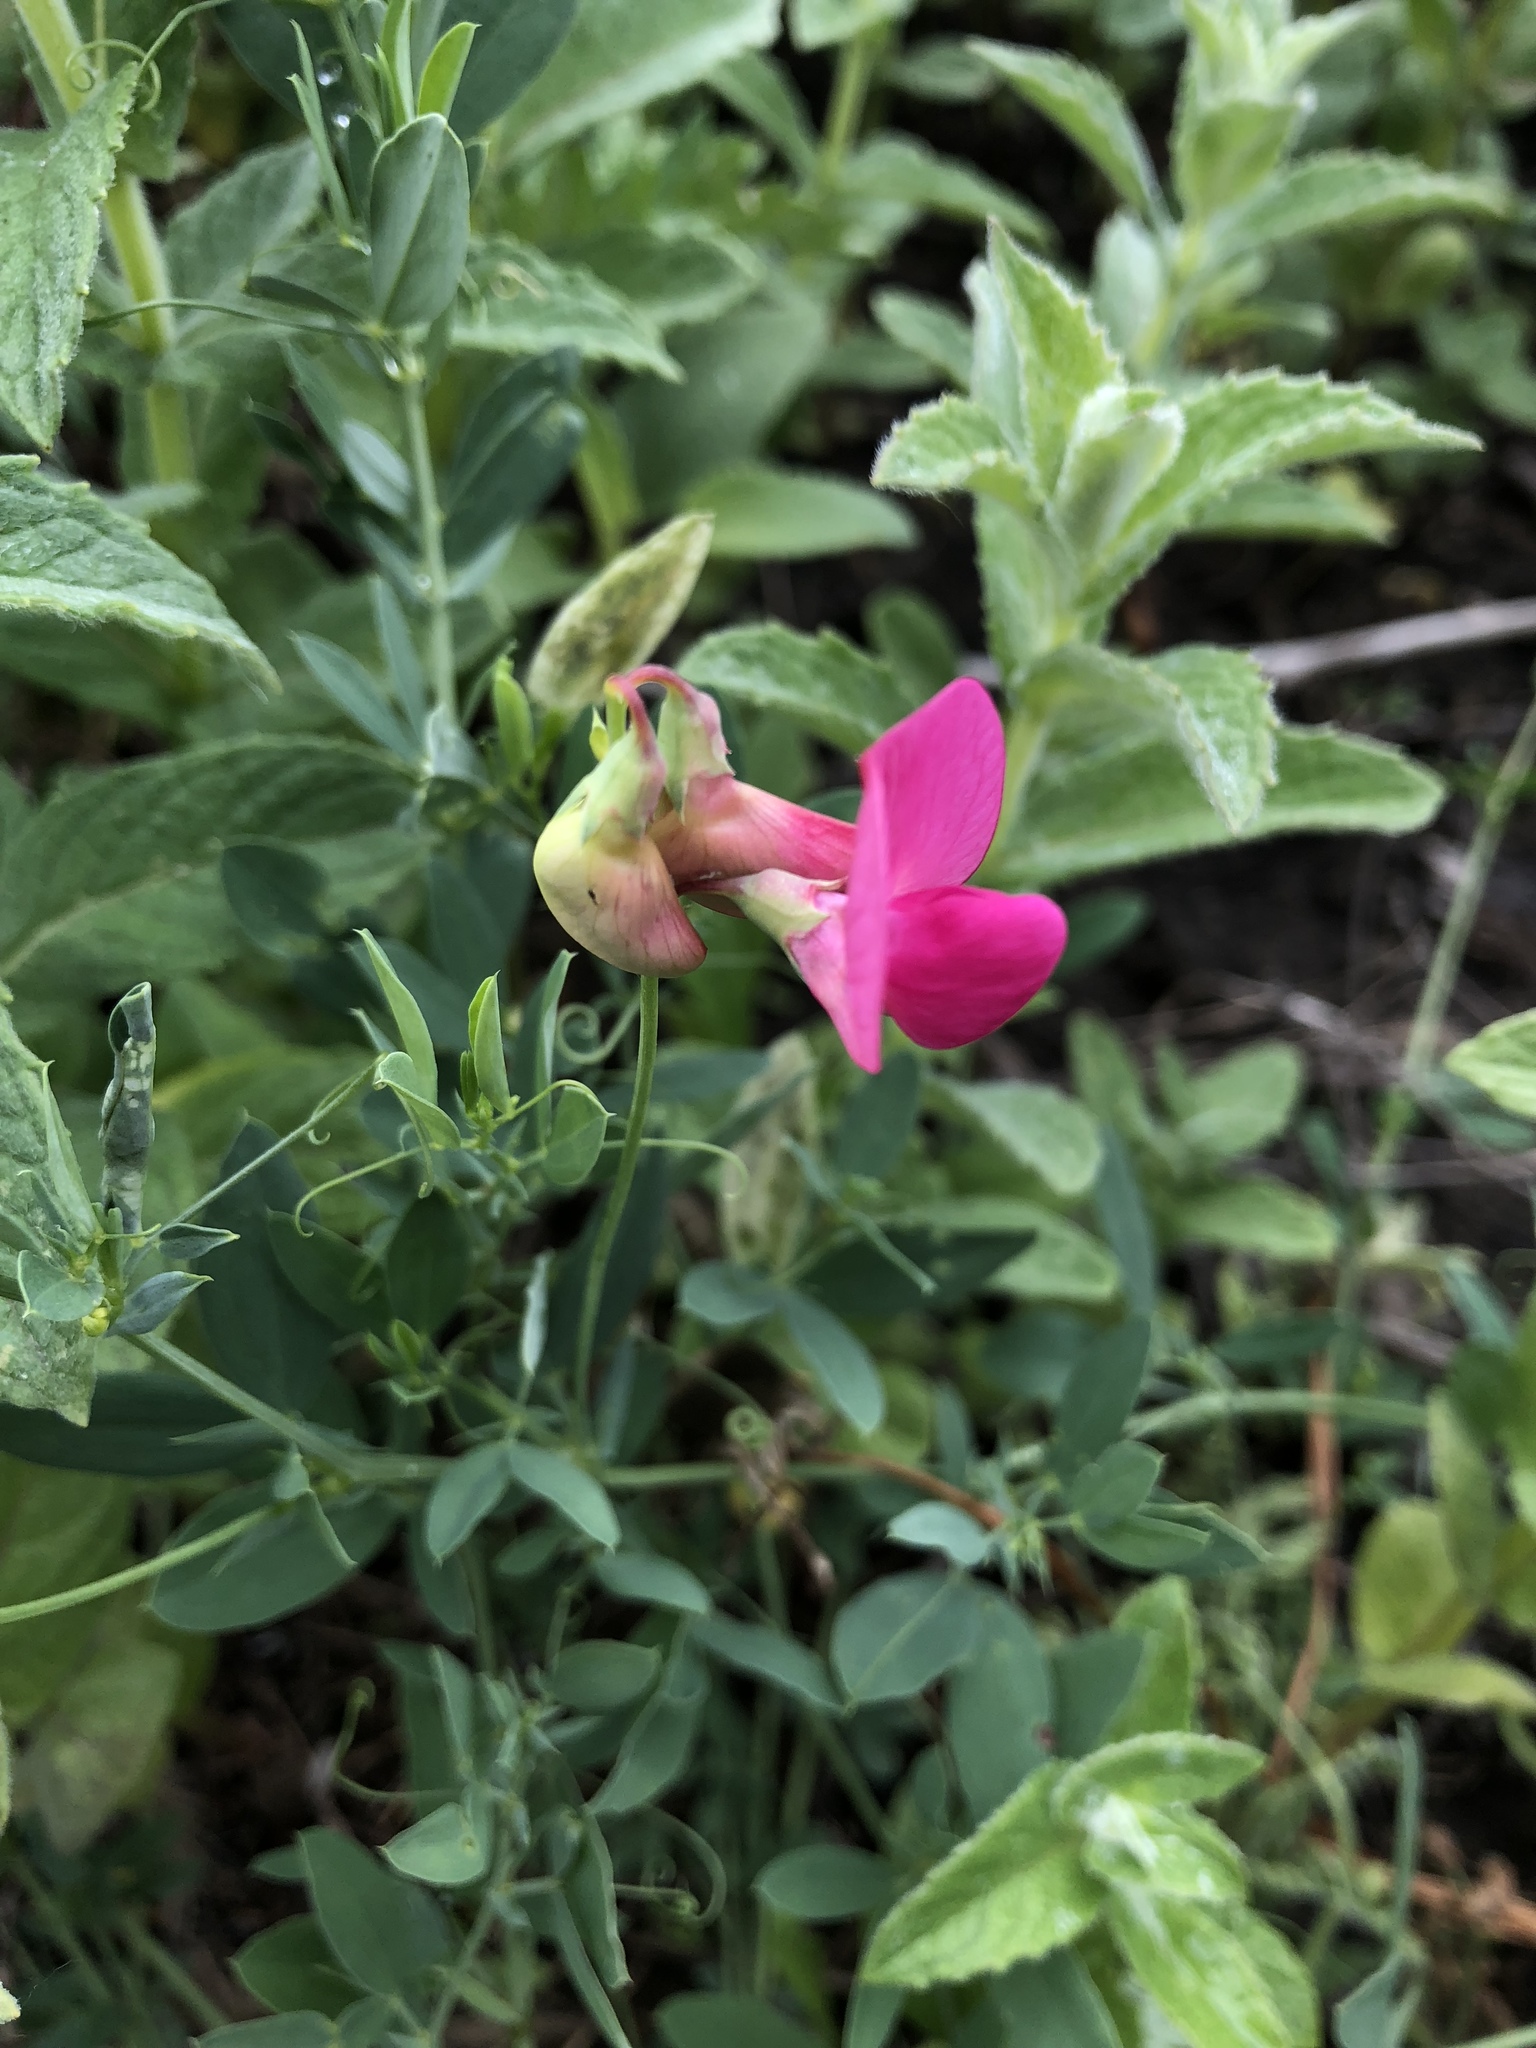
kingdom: Plantae
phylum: Tracheophyta
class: Magnoliopsida
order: Fabales
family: Fabaceae
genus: Lathyrus
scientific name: Lathyrus tuberosus
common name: Tuberous pea
